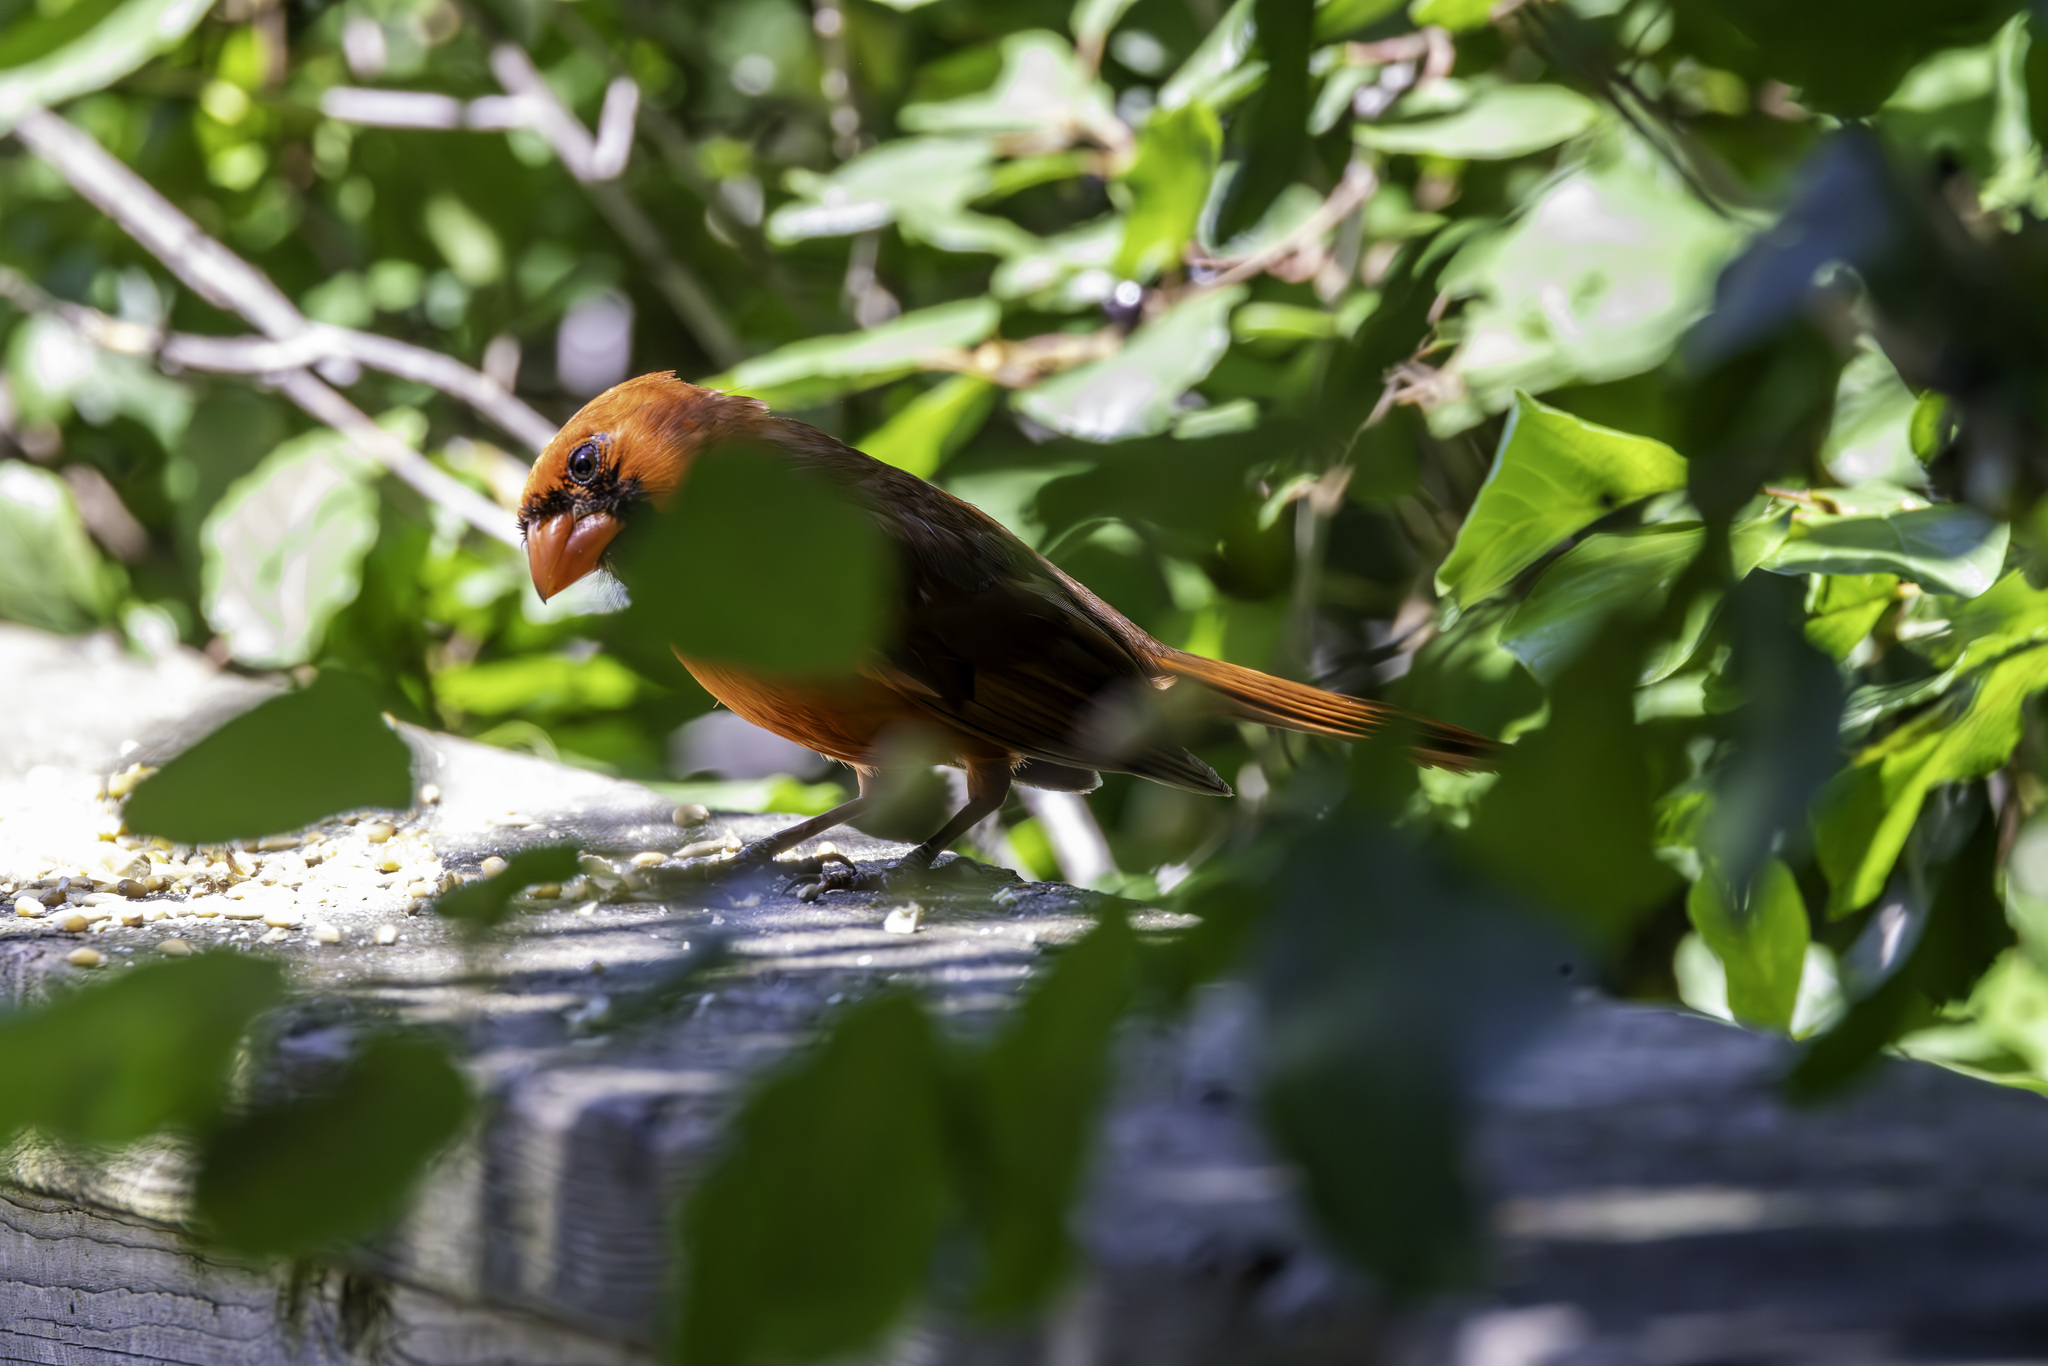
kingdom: Animalia
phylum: Chordata
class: Aves
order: Passeriformes
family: Cardinalidae
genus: Cardinalis
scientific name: Cardinalis cardinalis
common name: Northern cardinal
